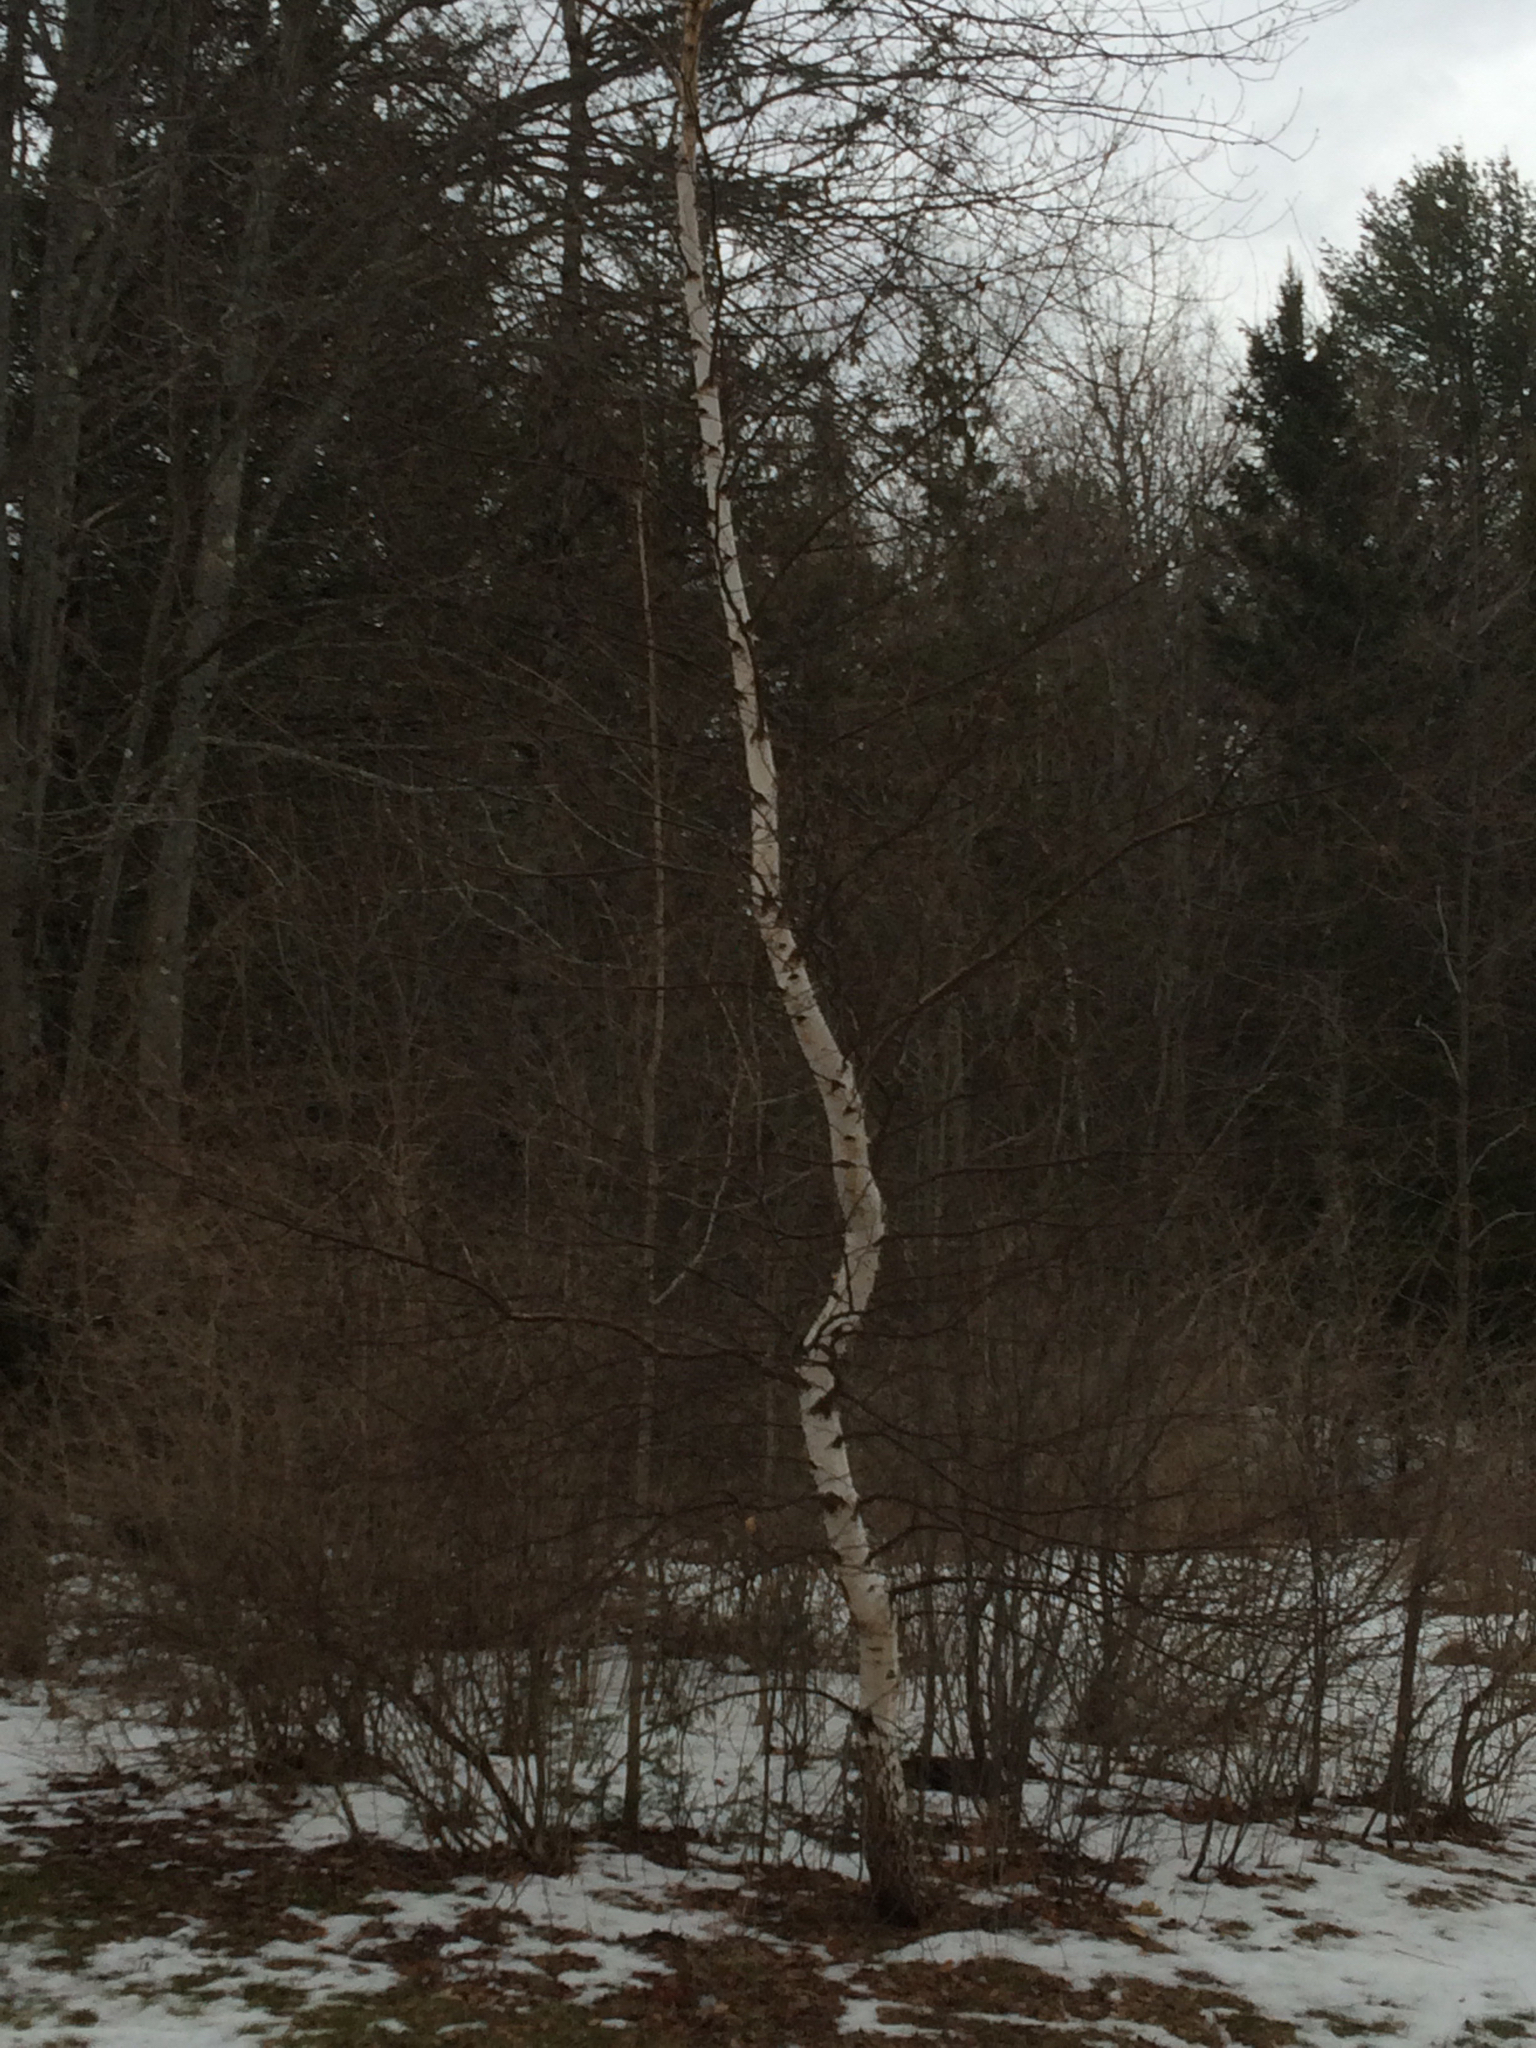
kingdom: Plantae
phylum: Tracheophyta
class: Magnoliopsida
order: Fagales
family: Betulaceae
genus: Betula
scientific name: Betula papyrifera
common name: Paper birch
